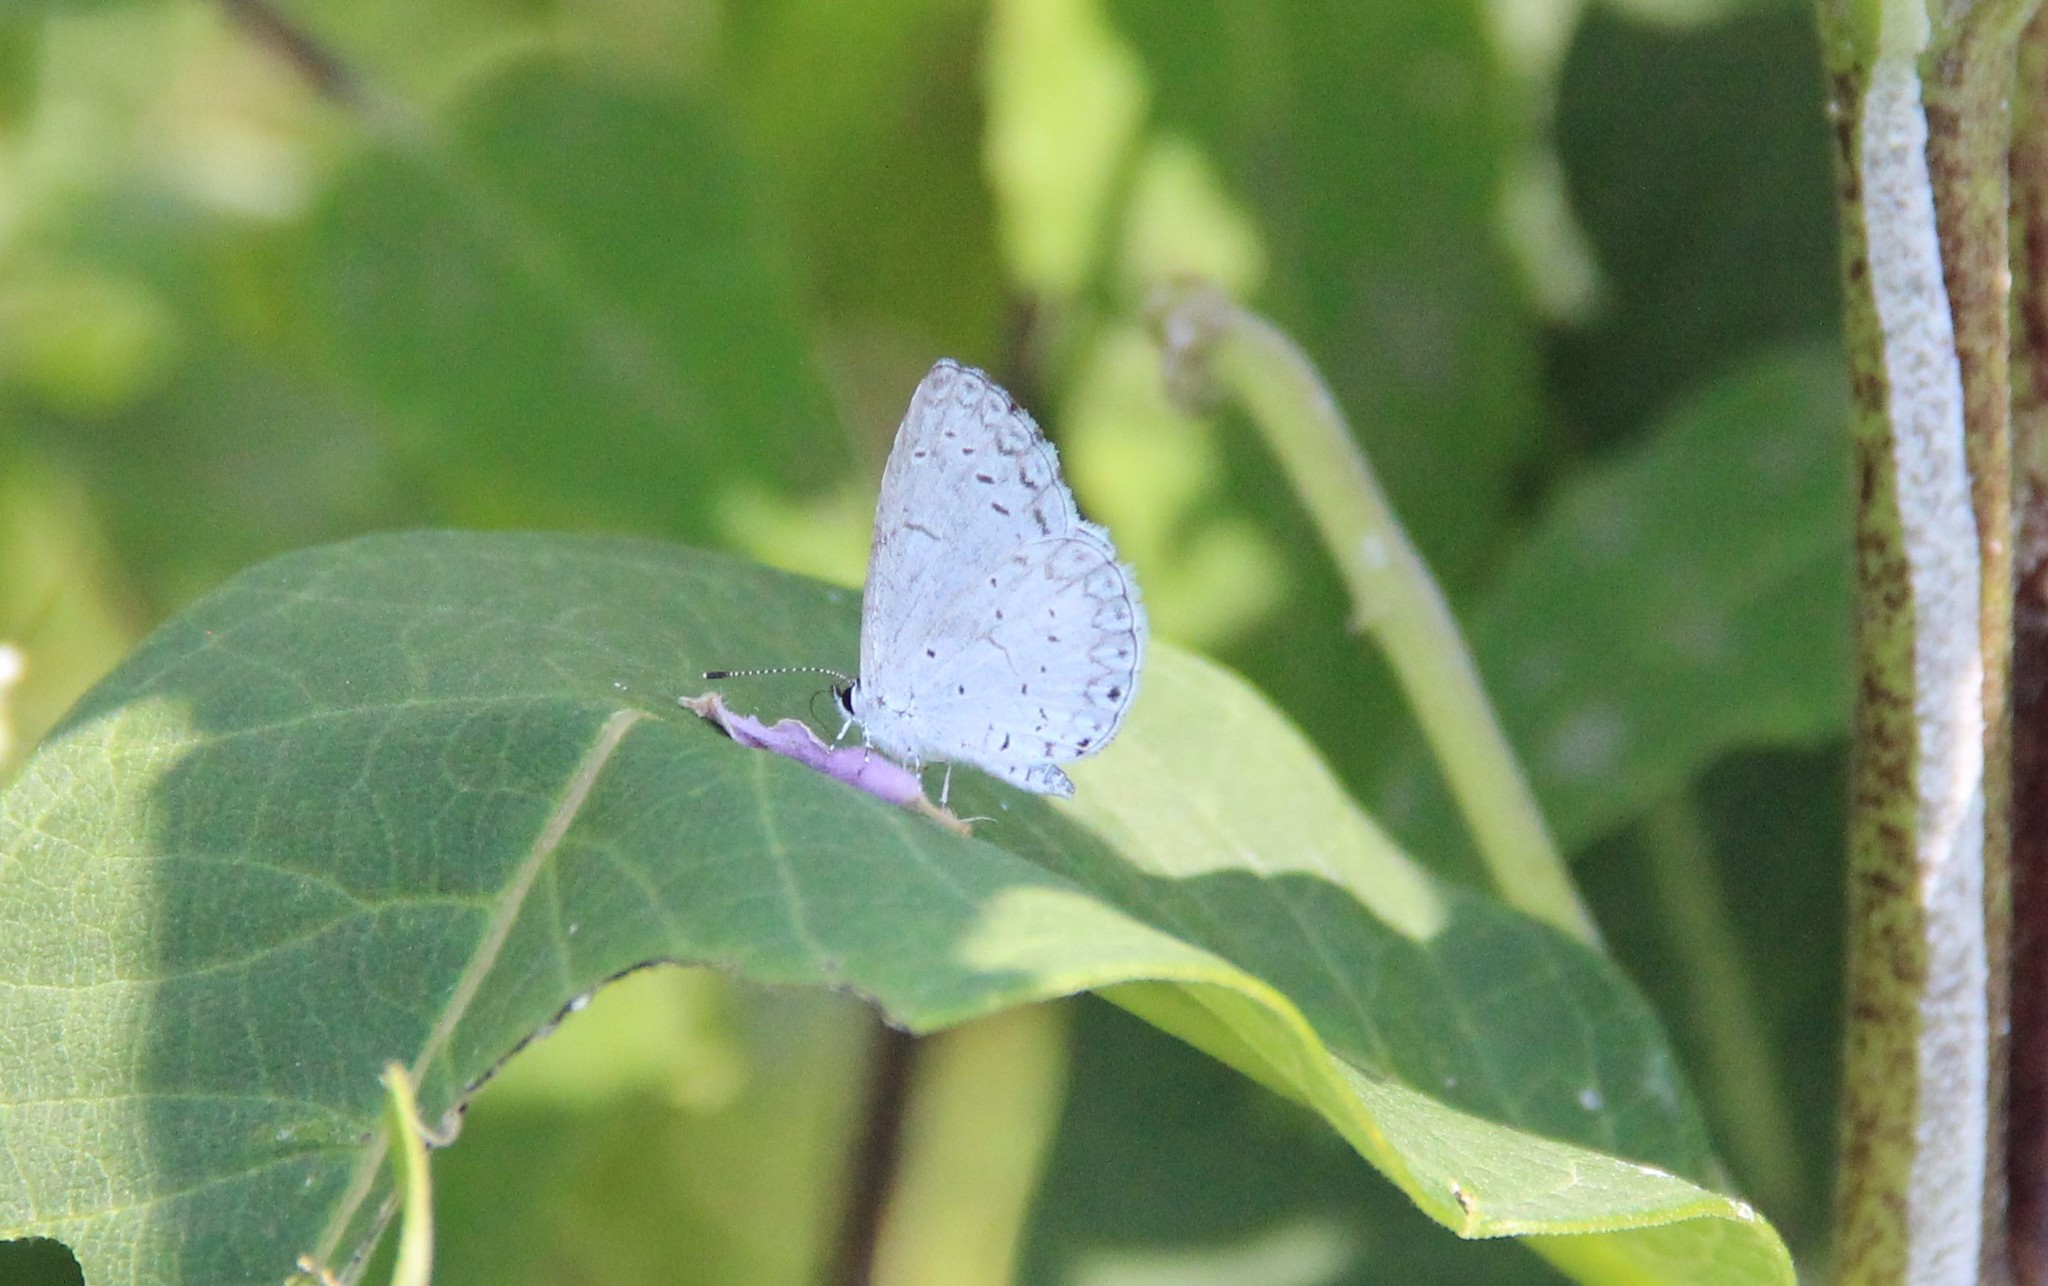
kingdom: Animalia
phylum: Arthropoda
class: Insecta
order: Lepidoptera
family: Lycaenidae
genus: Cyaniris
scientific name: Cyaniris neglecta
